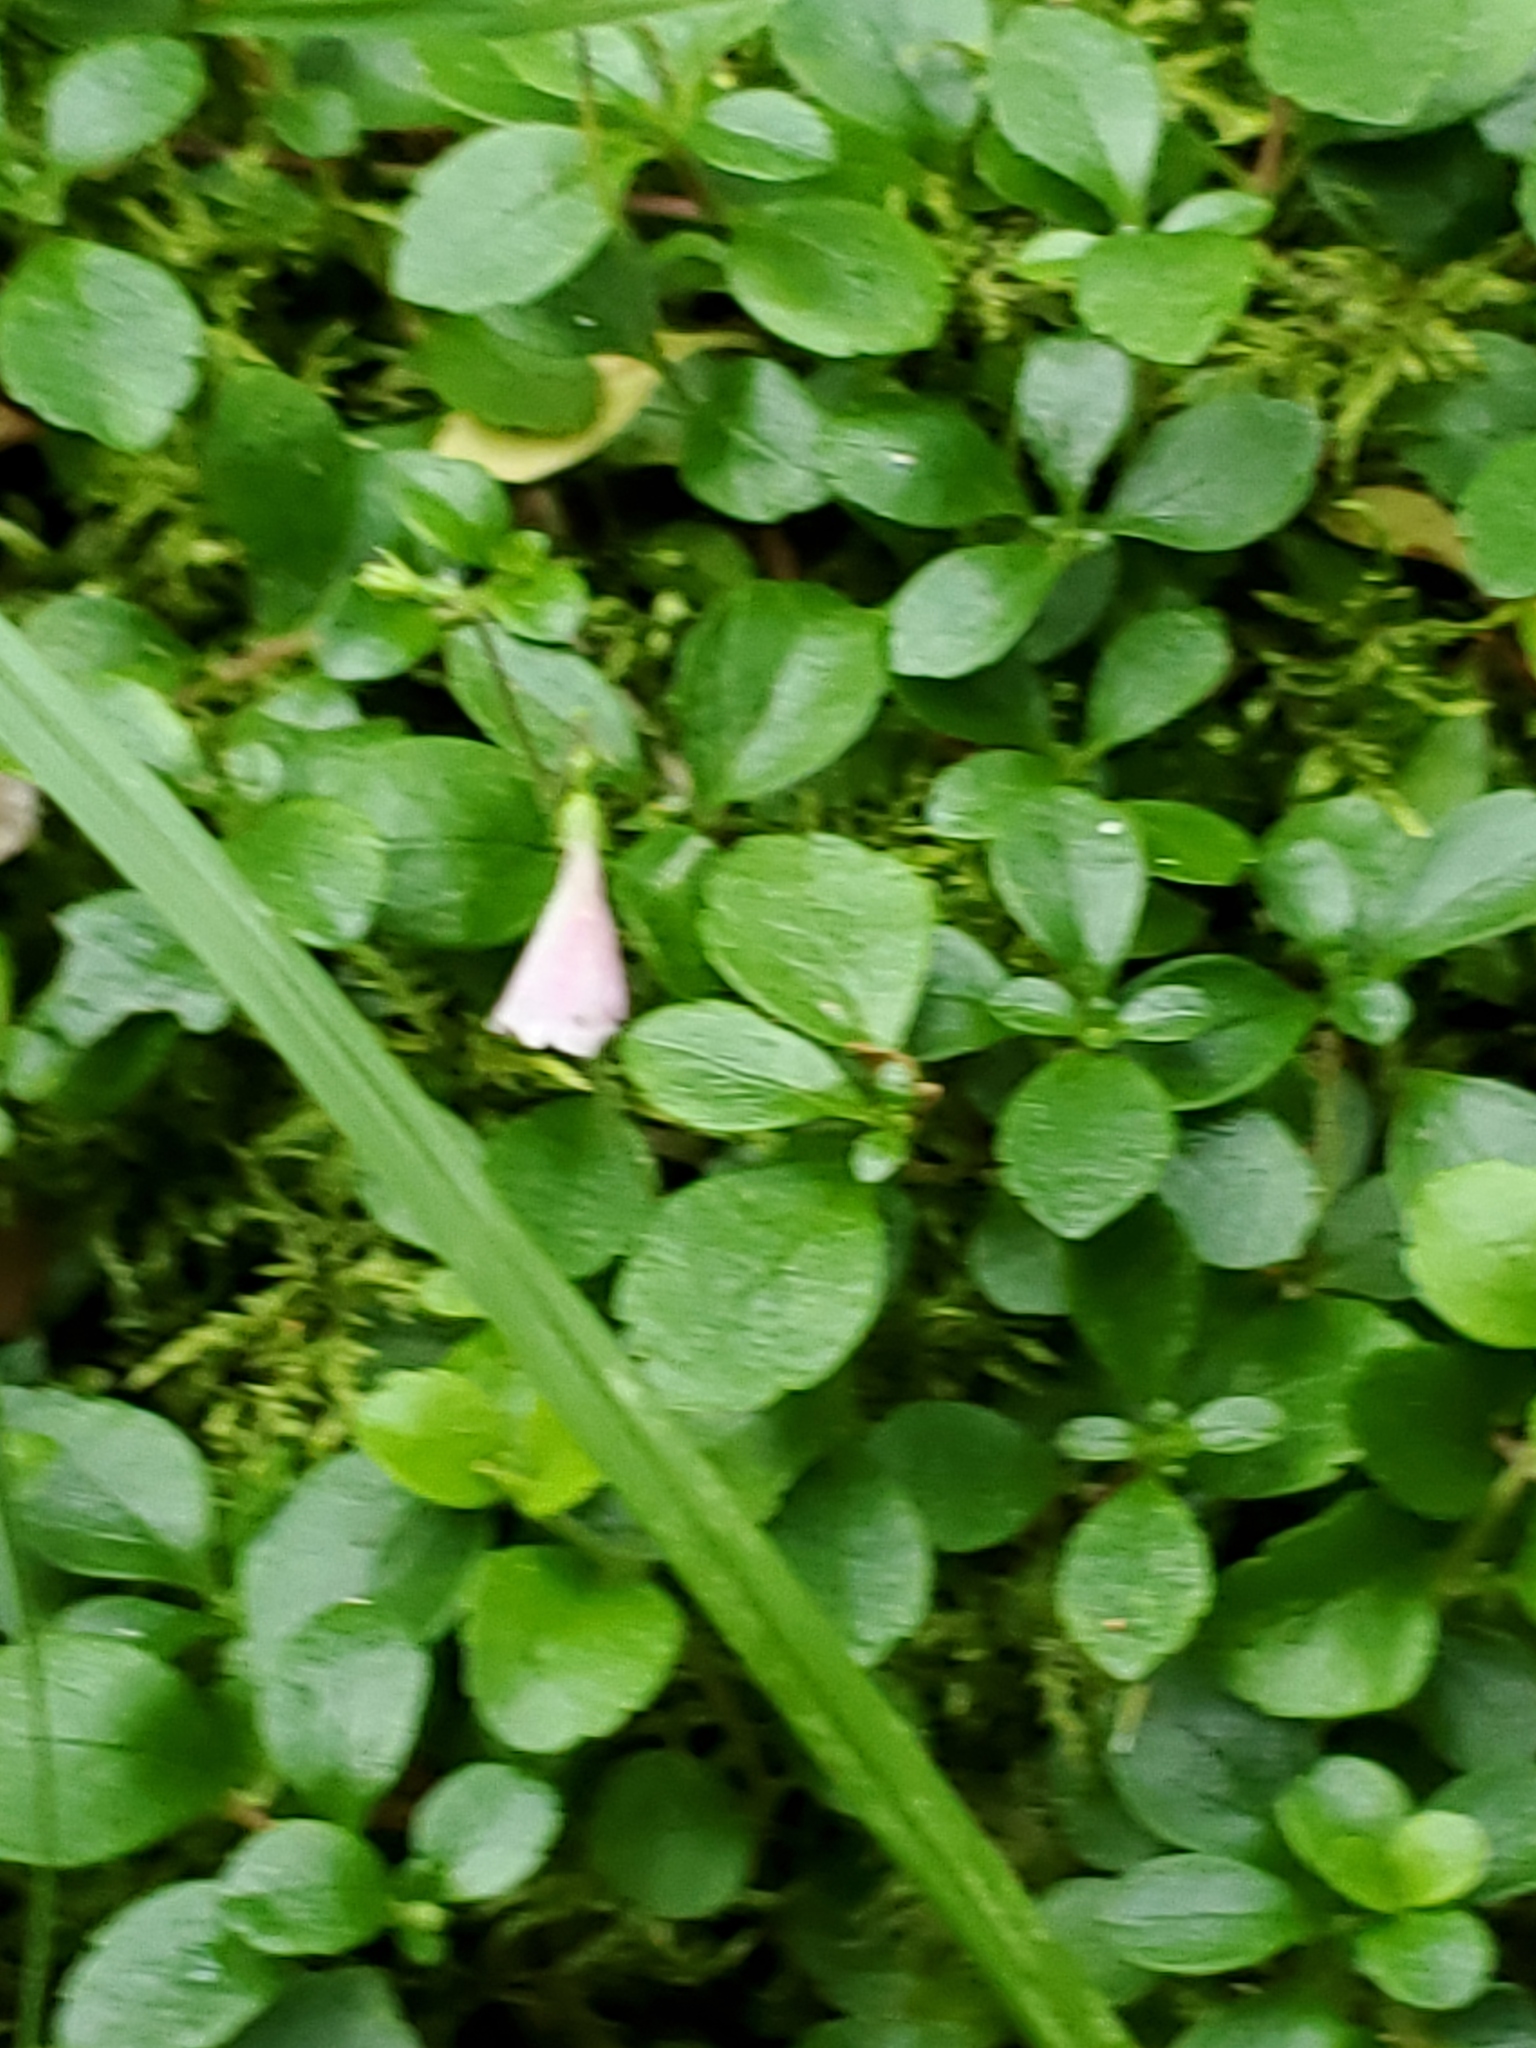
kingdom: Plantae
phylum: Tracheophyta
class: Magnoliopsida
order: Dipsacales
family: Caprifoliaceae
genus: Linnaea
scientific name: Linnaea borealis
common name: Twinflower
